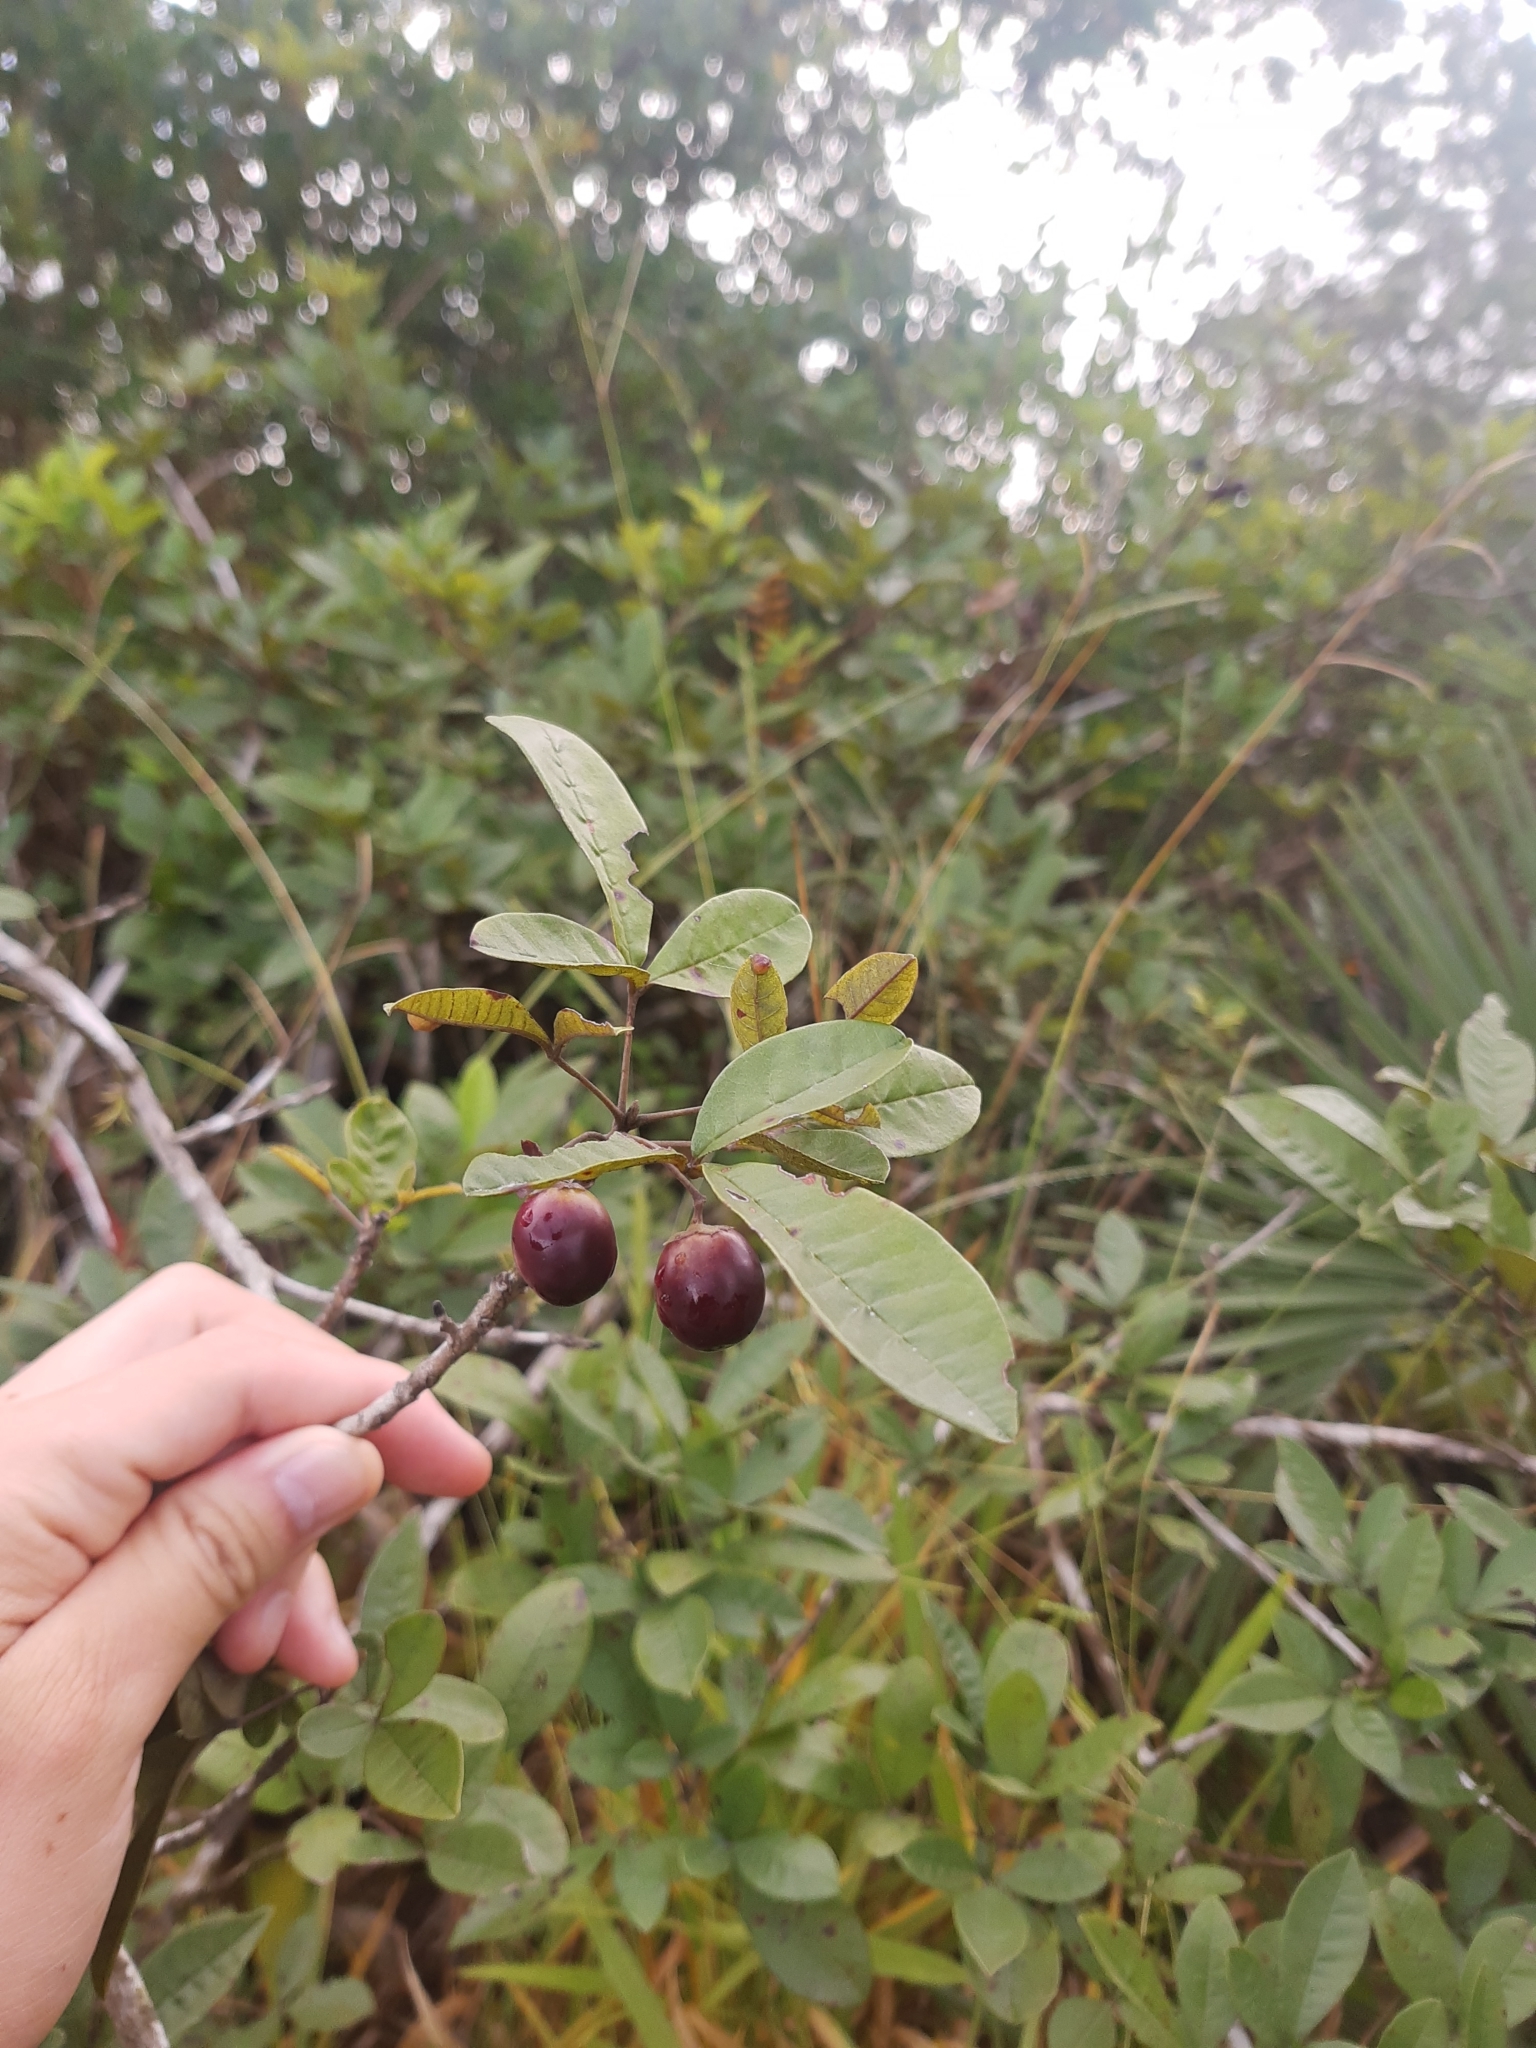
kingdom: Plantae
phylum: Tracheophyta
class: Magnoliopsida
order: Lamiales
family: Lamiaceae
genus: Vitex
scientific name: Vitex megapotamica
